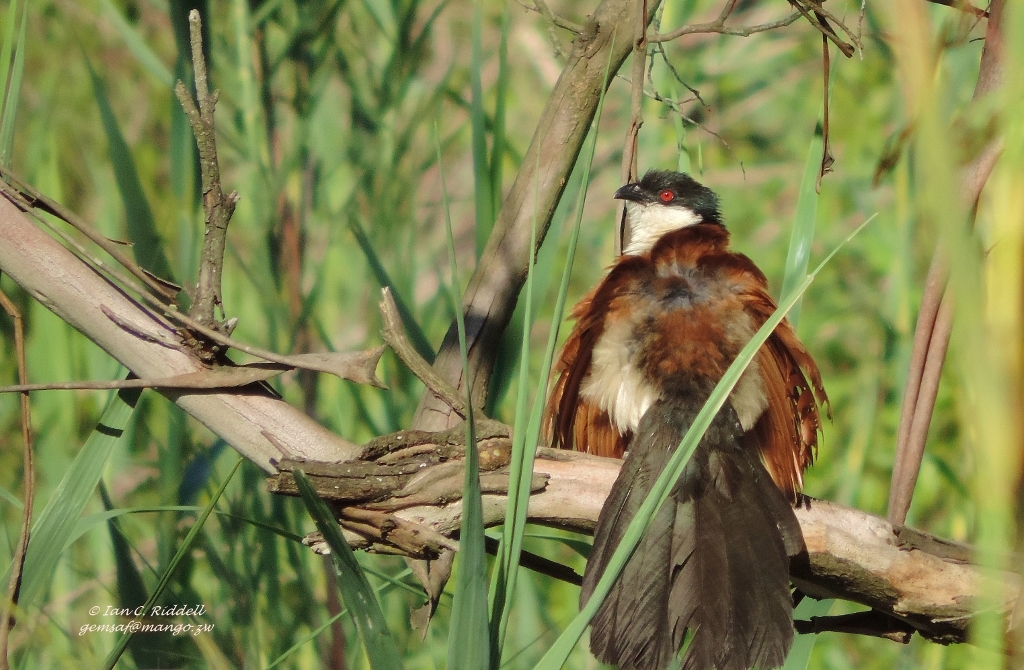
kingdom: Animalia
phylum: Chordata
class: Aves
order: Cuculiformes
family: Cuculidae
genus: Centropus
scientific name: Centropus senegalensis
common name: Senegal coucal
